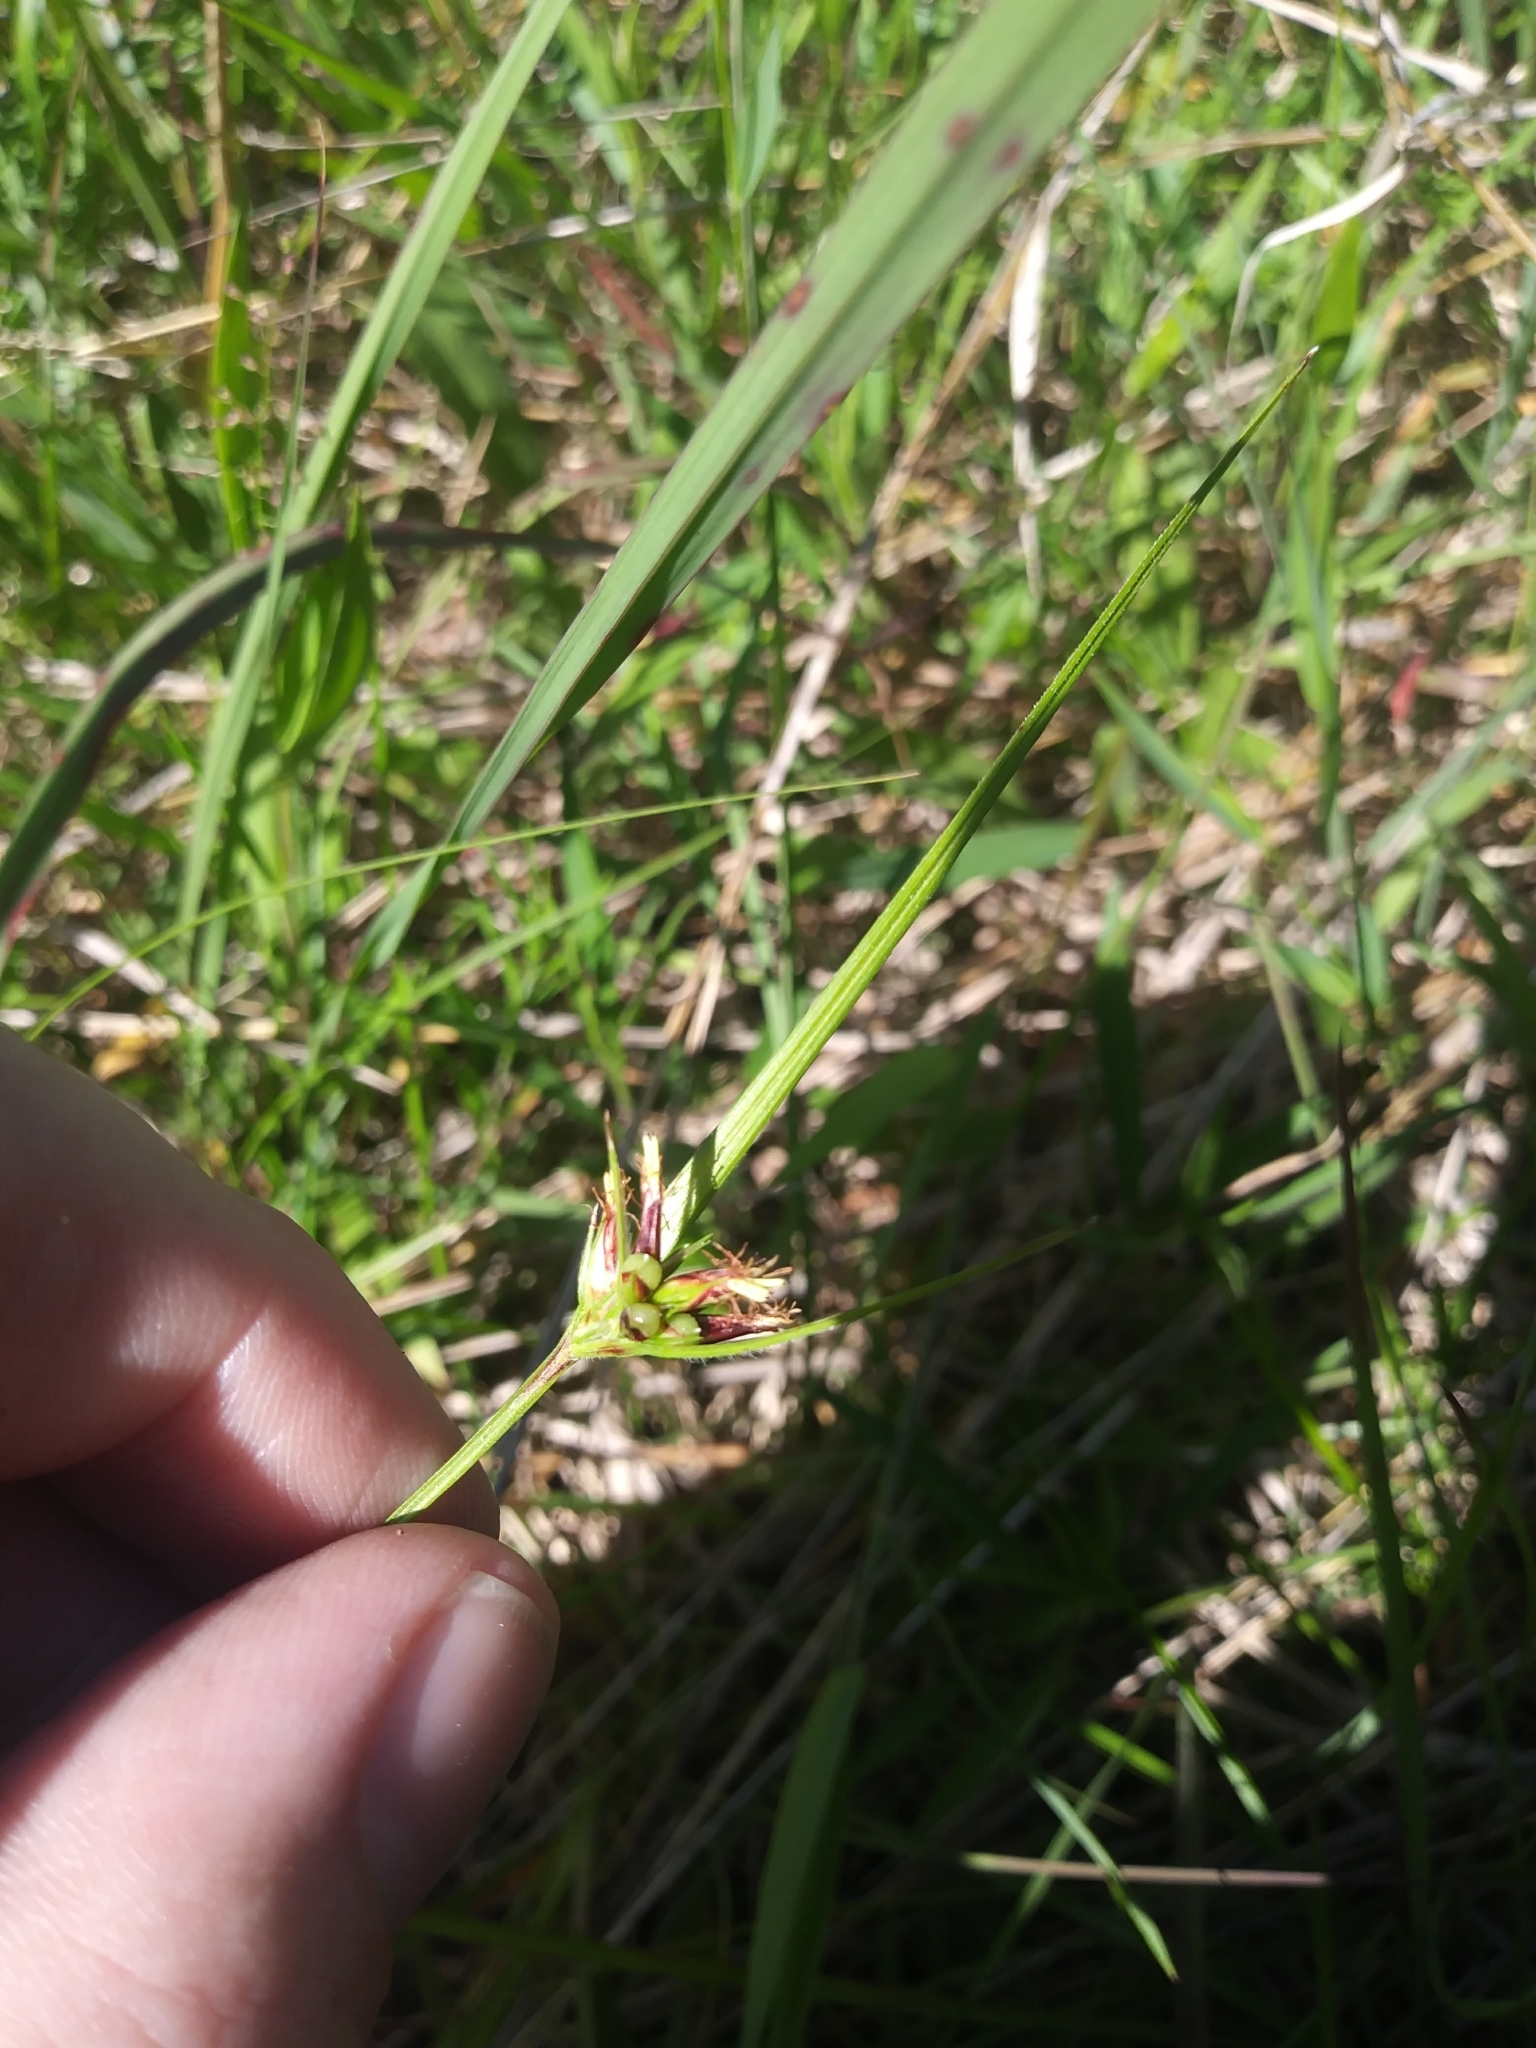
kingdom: Plantae
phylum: Tracheophyta
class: Liliopsida
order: Poales
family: Cyperaceae
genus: Scleria
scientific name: Scleria pauciflora
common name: Few-flowered nutrush
